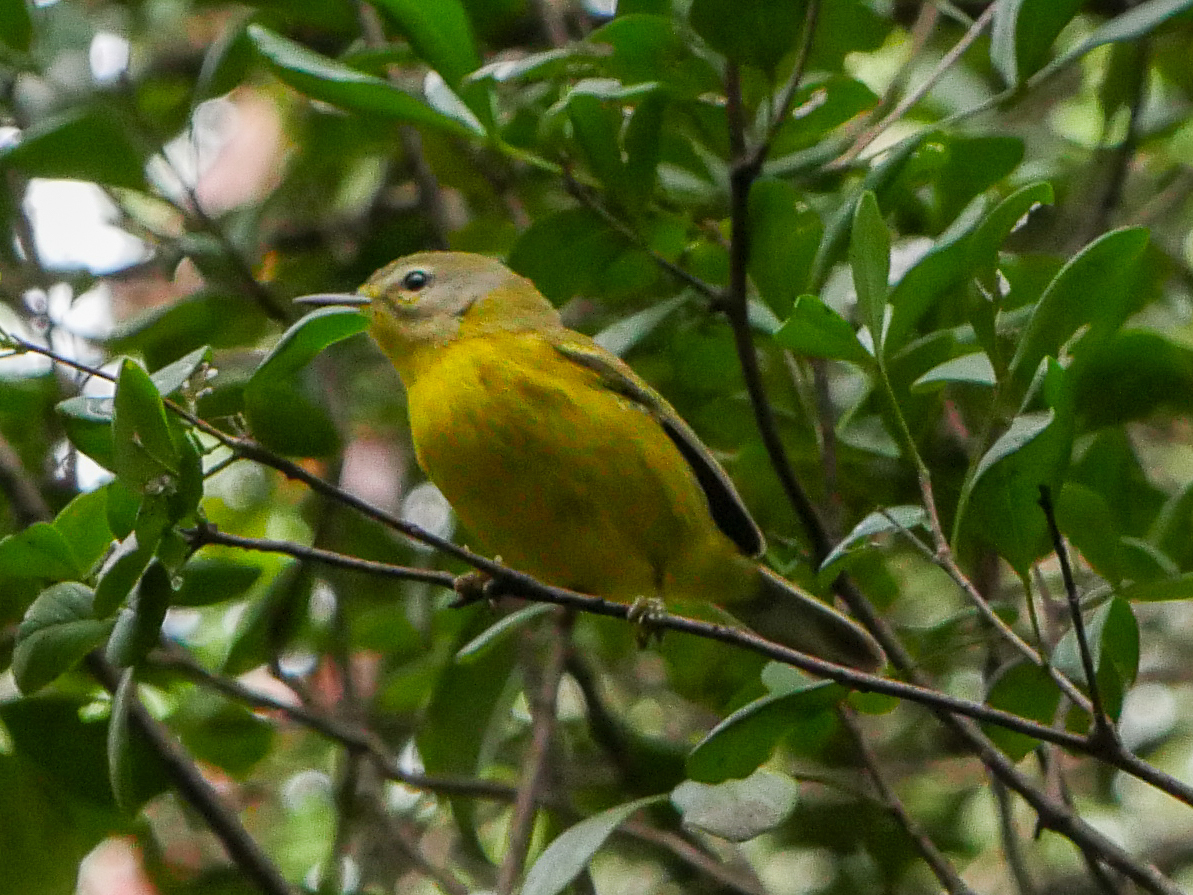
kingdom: Animalia
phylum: Chordata
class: Aves
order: Passeriformes
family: Parulidae
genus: Setophaga
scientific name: Setophaga vitellina
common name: Vitelline warbler
